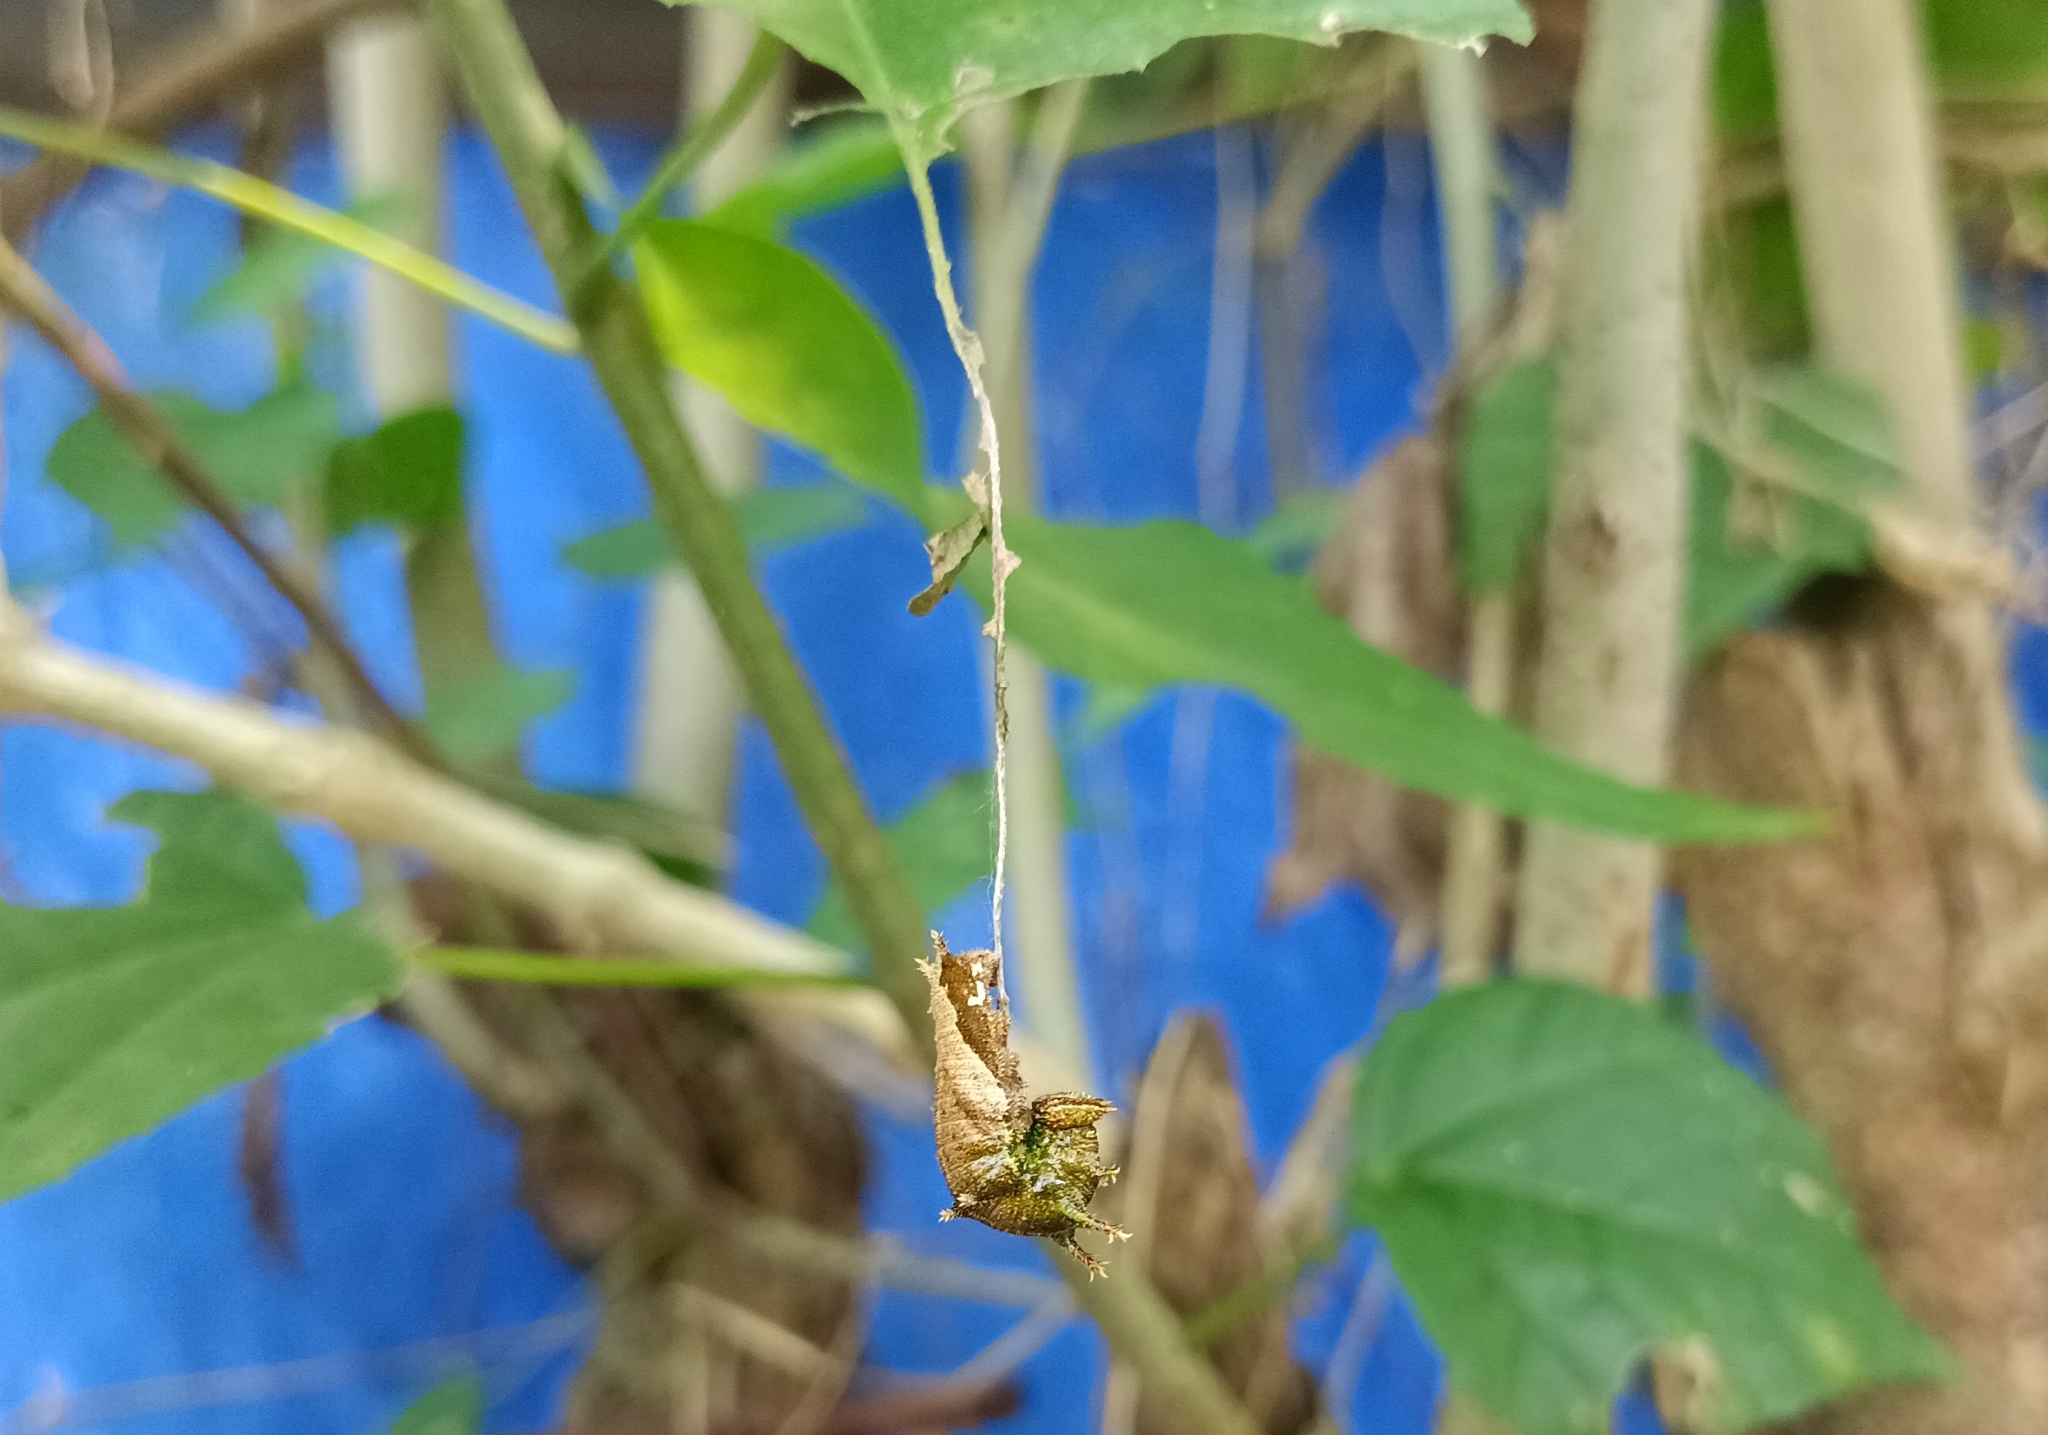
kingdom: Animalia
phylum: Arthropoda
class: Insecta
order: Lepidoptera
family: Nymphalidae
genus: Neptis
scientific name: Neptis jumbah
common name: Chestnut-streaked sailer
